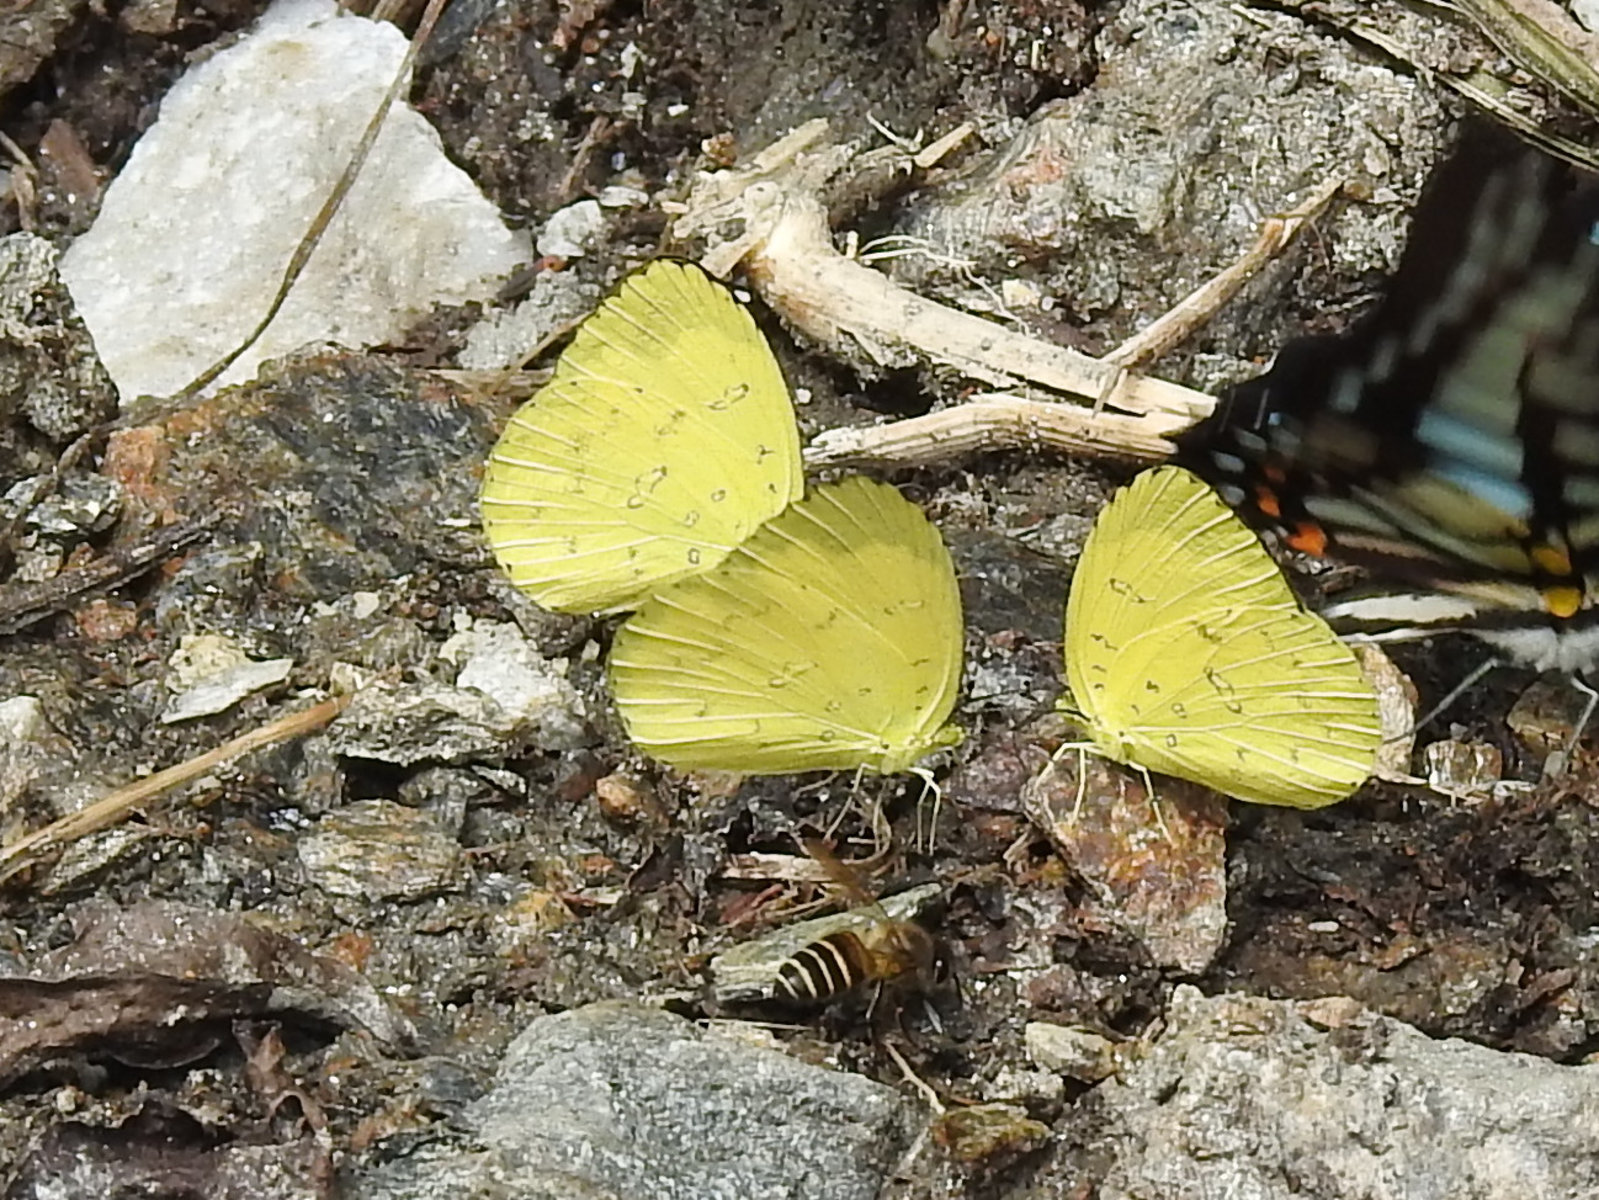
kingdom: Animalia
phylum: Arthropoda
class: Insecta
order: Lepidoptera
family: Pieridae
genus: Eurema
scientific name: Eurema blanda
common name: Three-spot grass yellow
